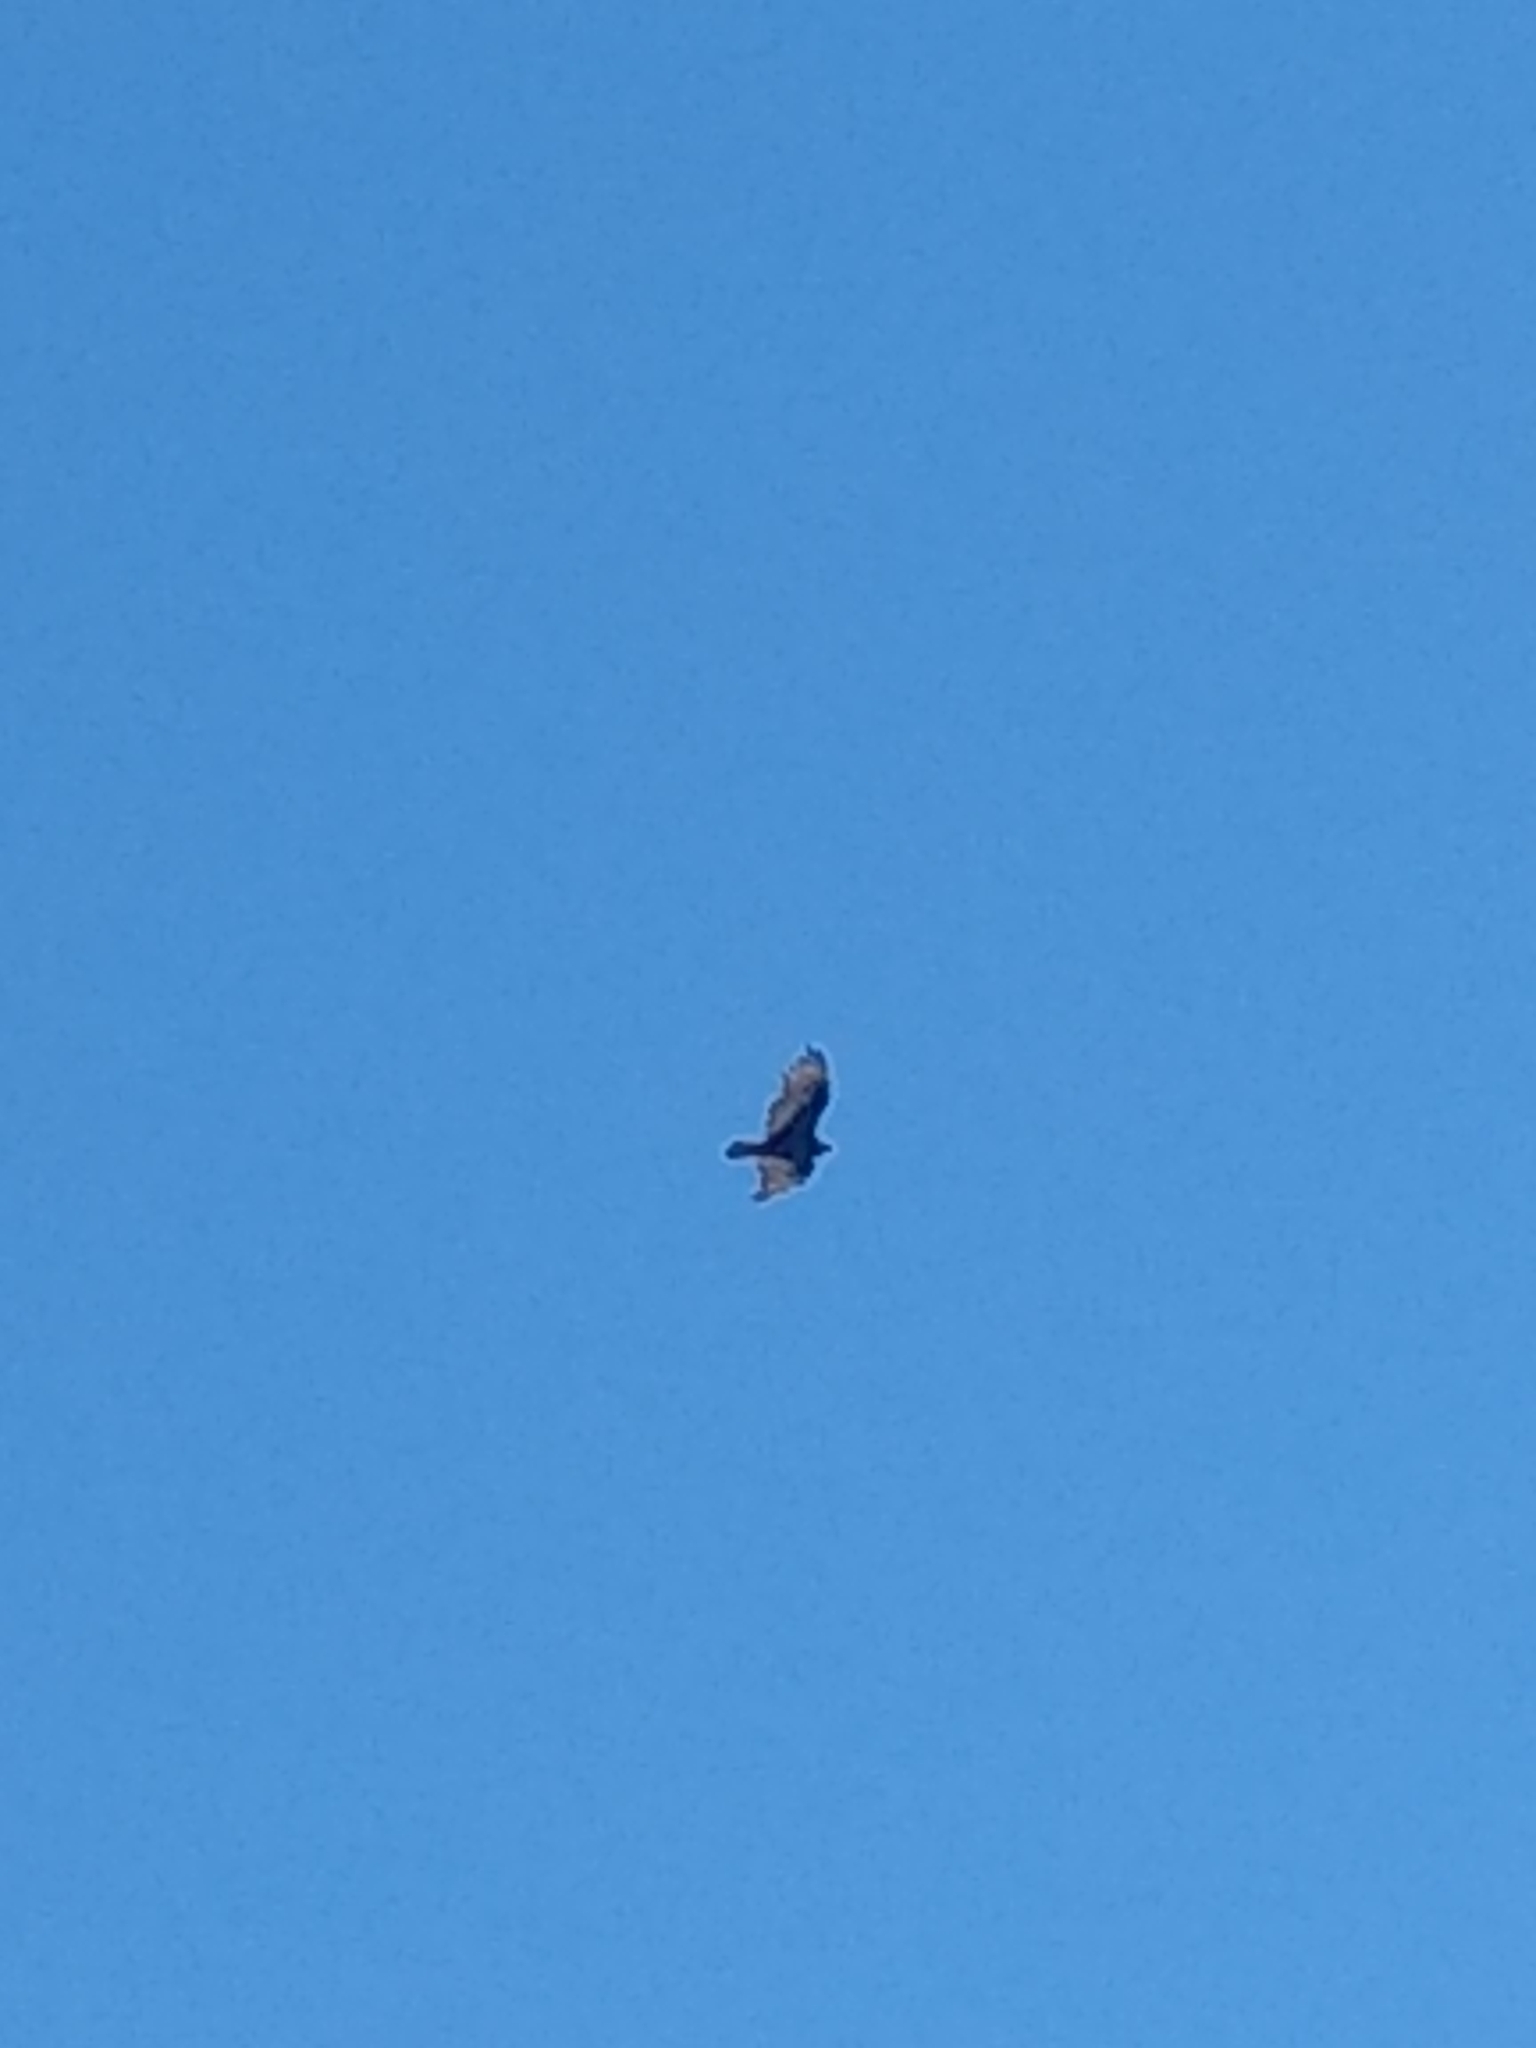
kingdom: Animalia
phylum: Chordata
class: Aves
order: Accipitriformes
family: Cathartidae
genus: Cathartes
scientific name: Cathartes aura
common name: Turkey vulture
